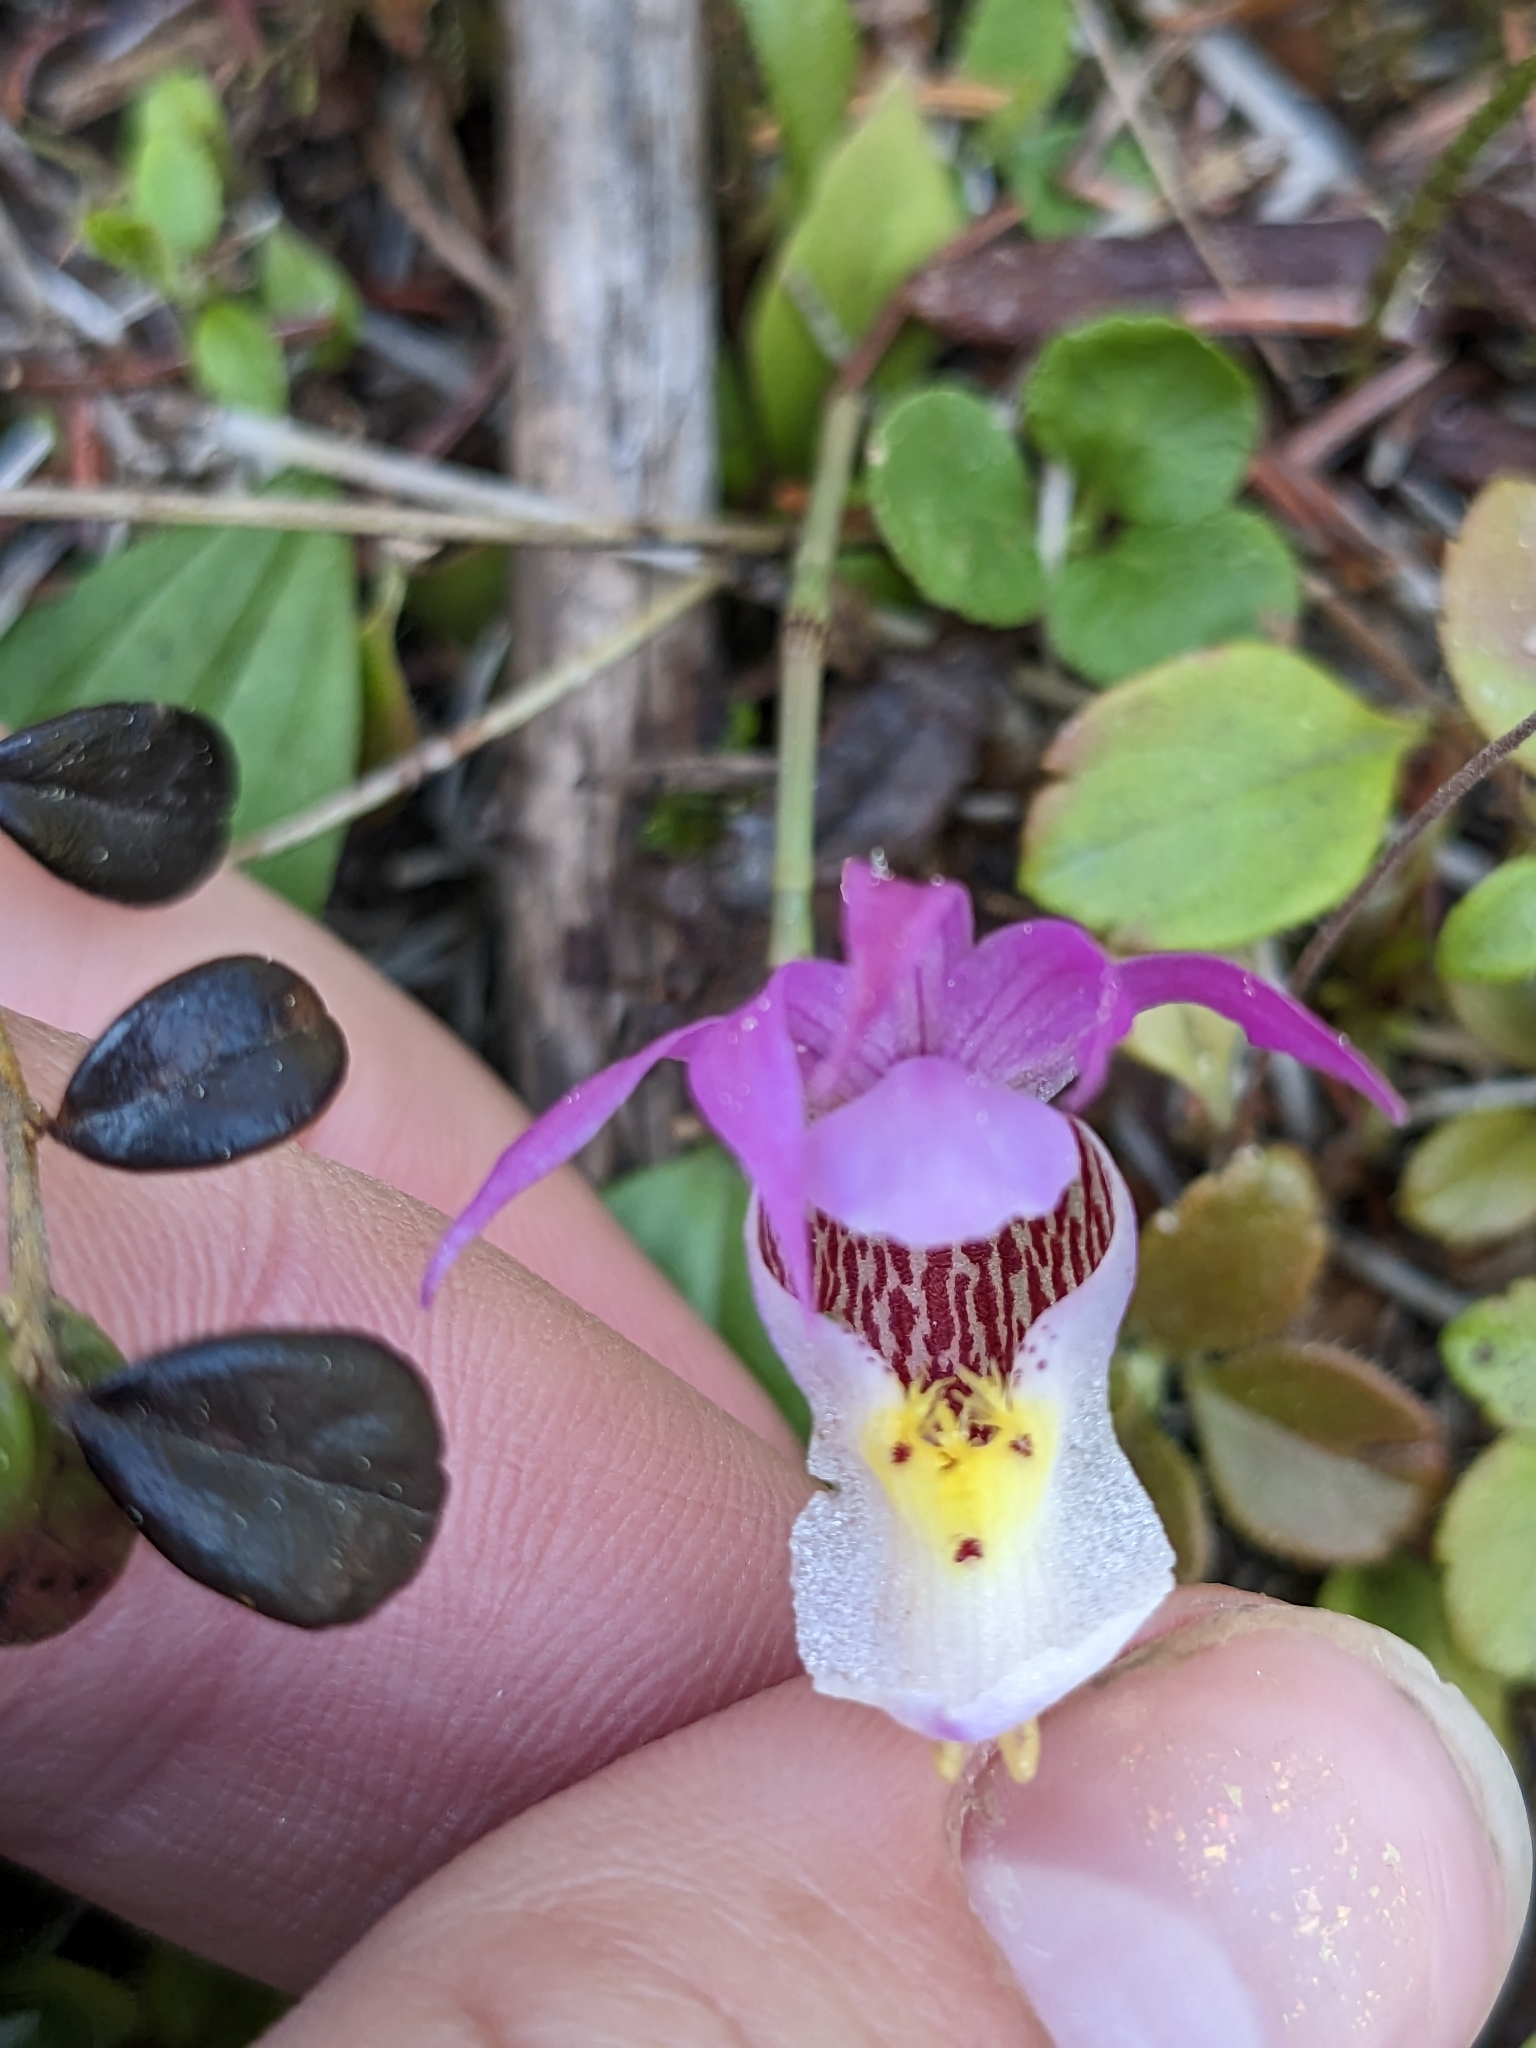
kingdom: Plantae
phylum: Tracheophyta
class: Liliopsida
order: Asparagales
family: Orchidaceae
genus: Calypso
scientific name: Calypso bulbosa
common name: Calypso
